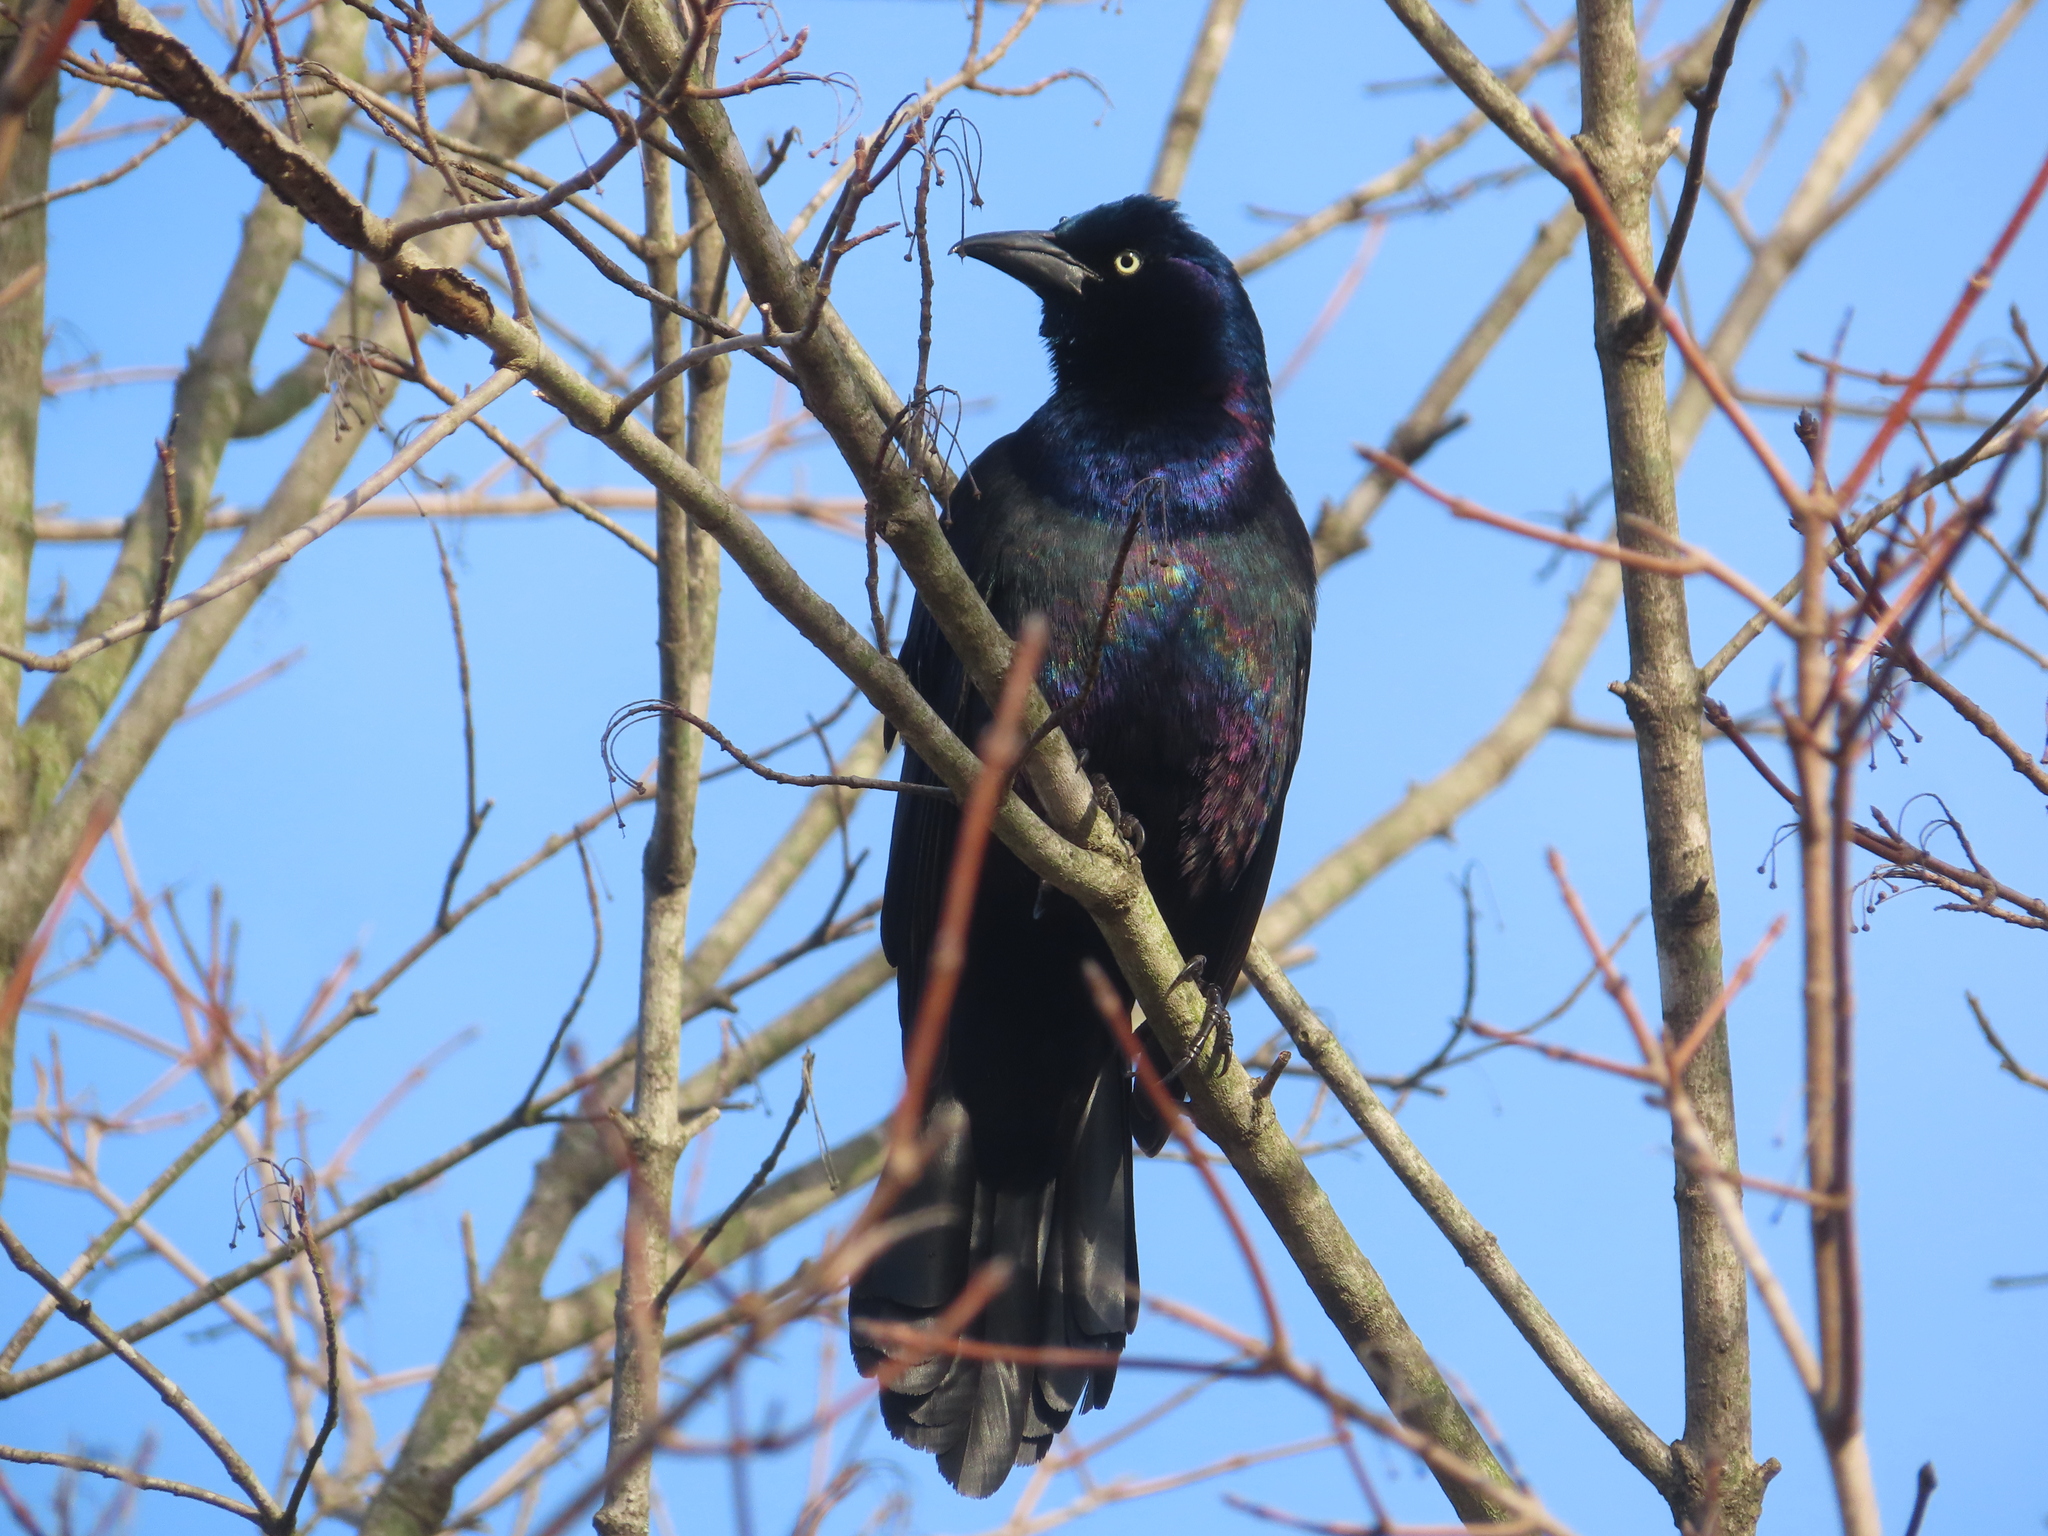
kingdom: Animalia
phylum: Chordata
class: Aves
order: Passeriformes
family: Icteridae
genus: Quiscalus
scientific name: Quiscalus quiscula
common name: Common grackle
